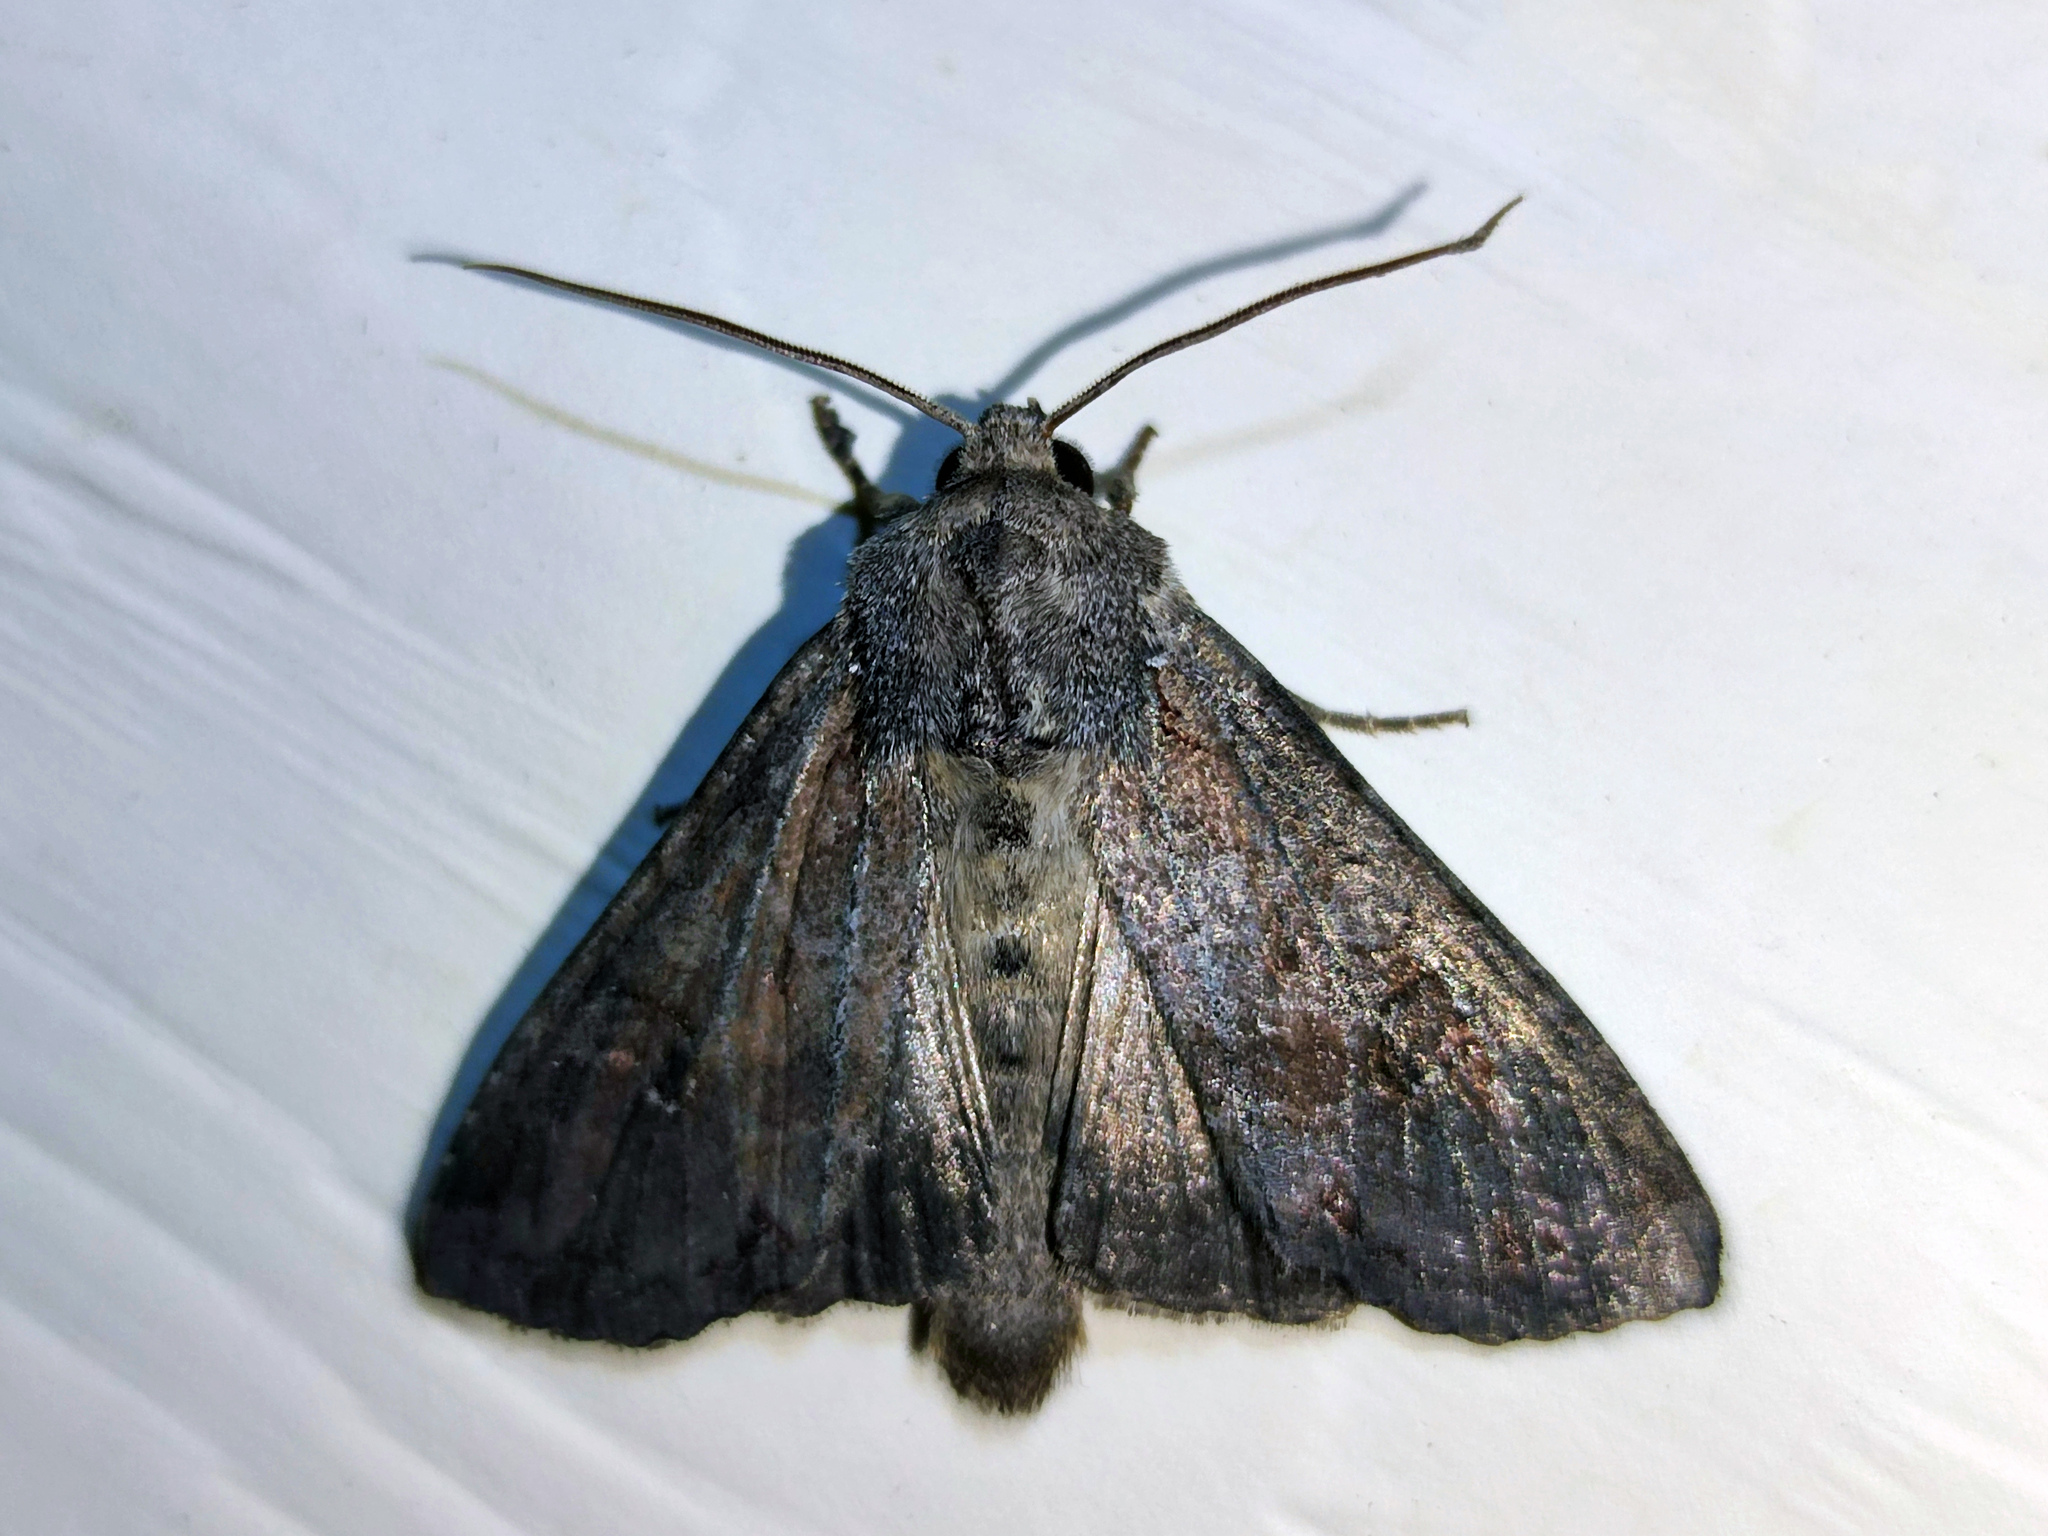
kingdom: Animalia
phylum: Arthropoda
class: Insecta
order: Lepidoptera
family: Noctuidae
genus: Polia
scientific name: Polia bombycina
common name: Pale shining brown
